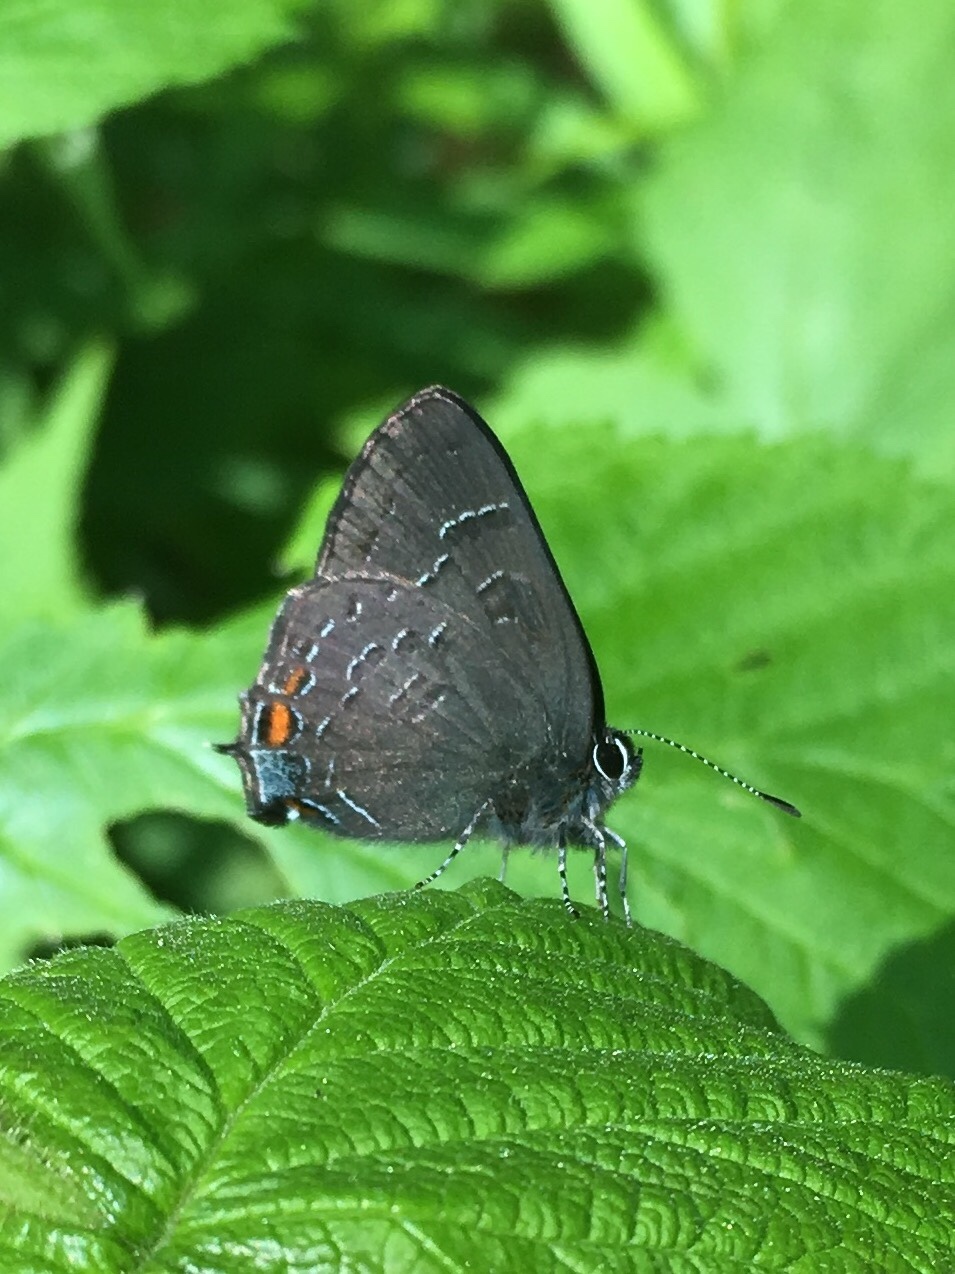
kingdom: Animalia
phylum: Arthropoda
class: Insecta
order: Lepidoptera
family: Lycaenidae
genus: Satyrium
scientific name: Satyrium calanus
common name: Banded hairstreak
